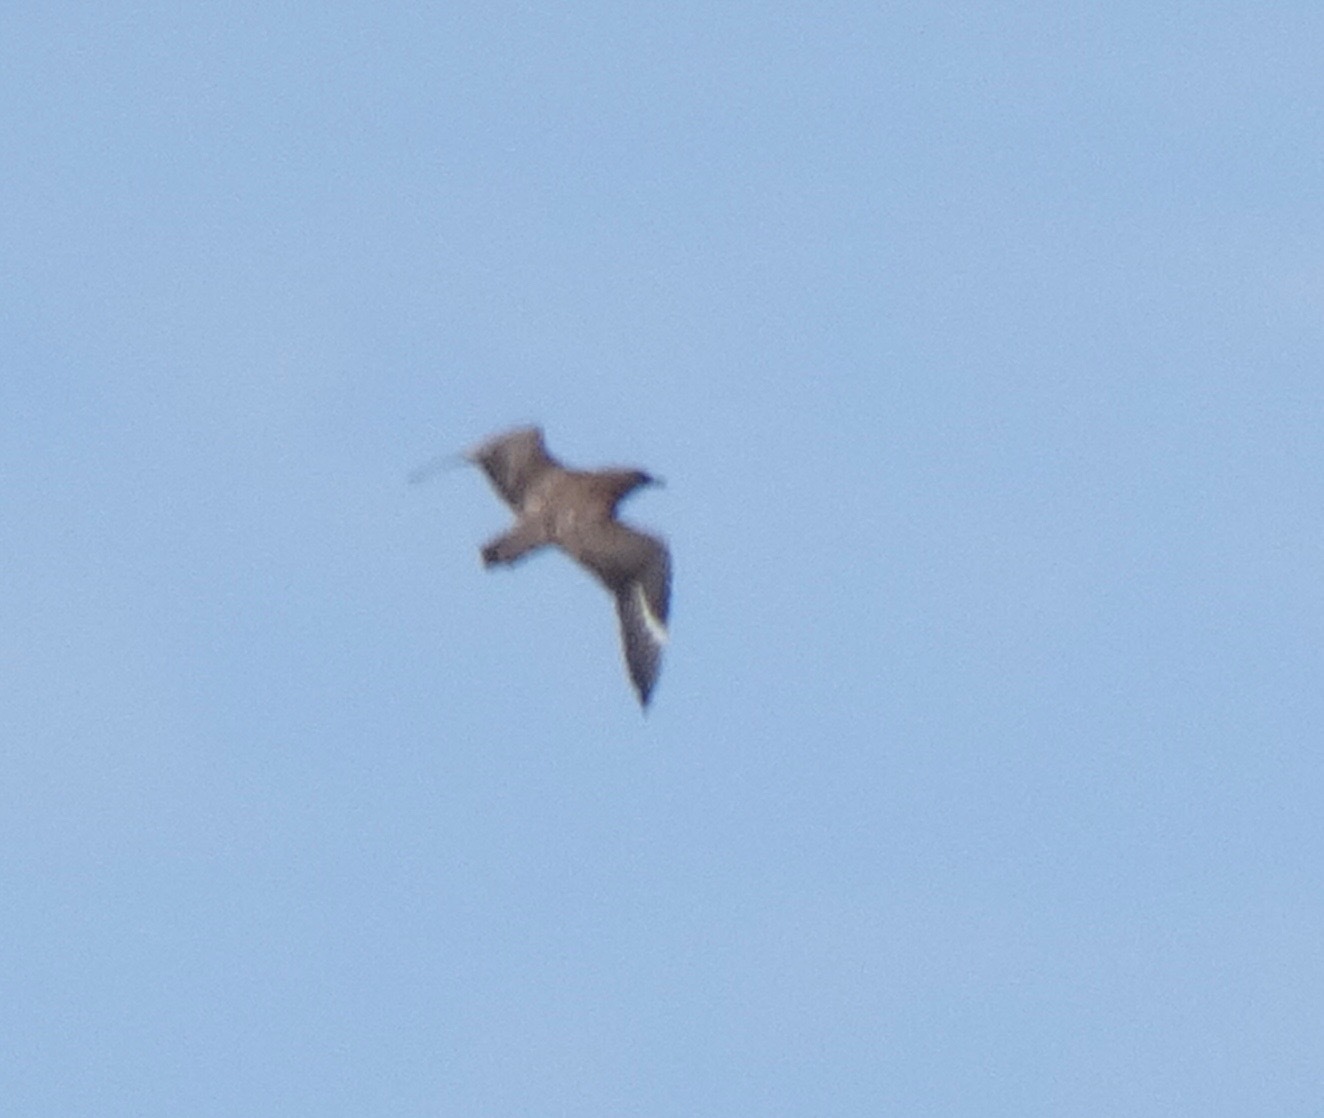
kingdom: Animalia
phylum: Chordata
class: Aves
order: Charadriiformes
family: Stercorariidae
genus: Stercorarius
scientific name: Stercorarius skua
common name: Great skua
